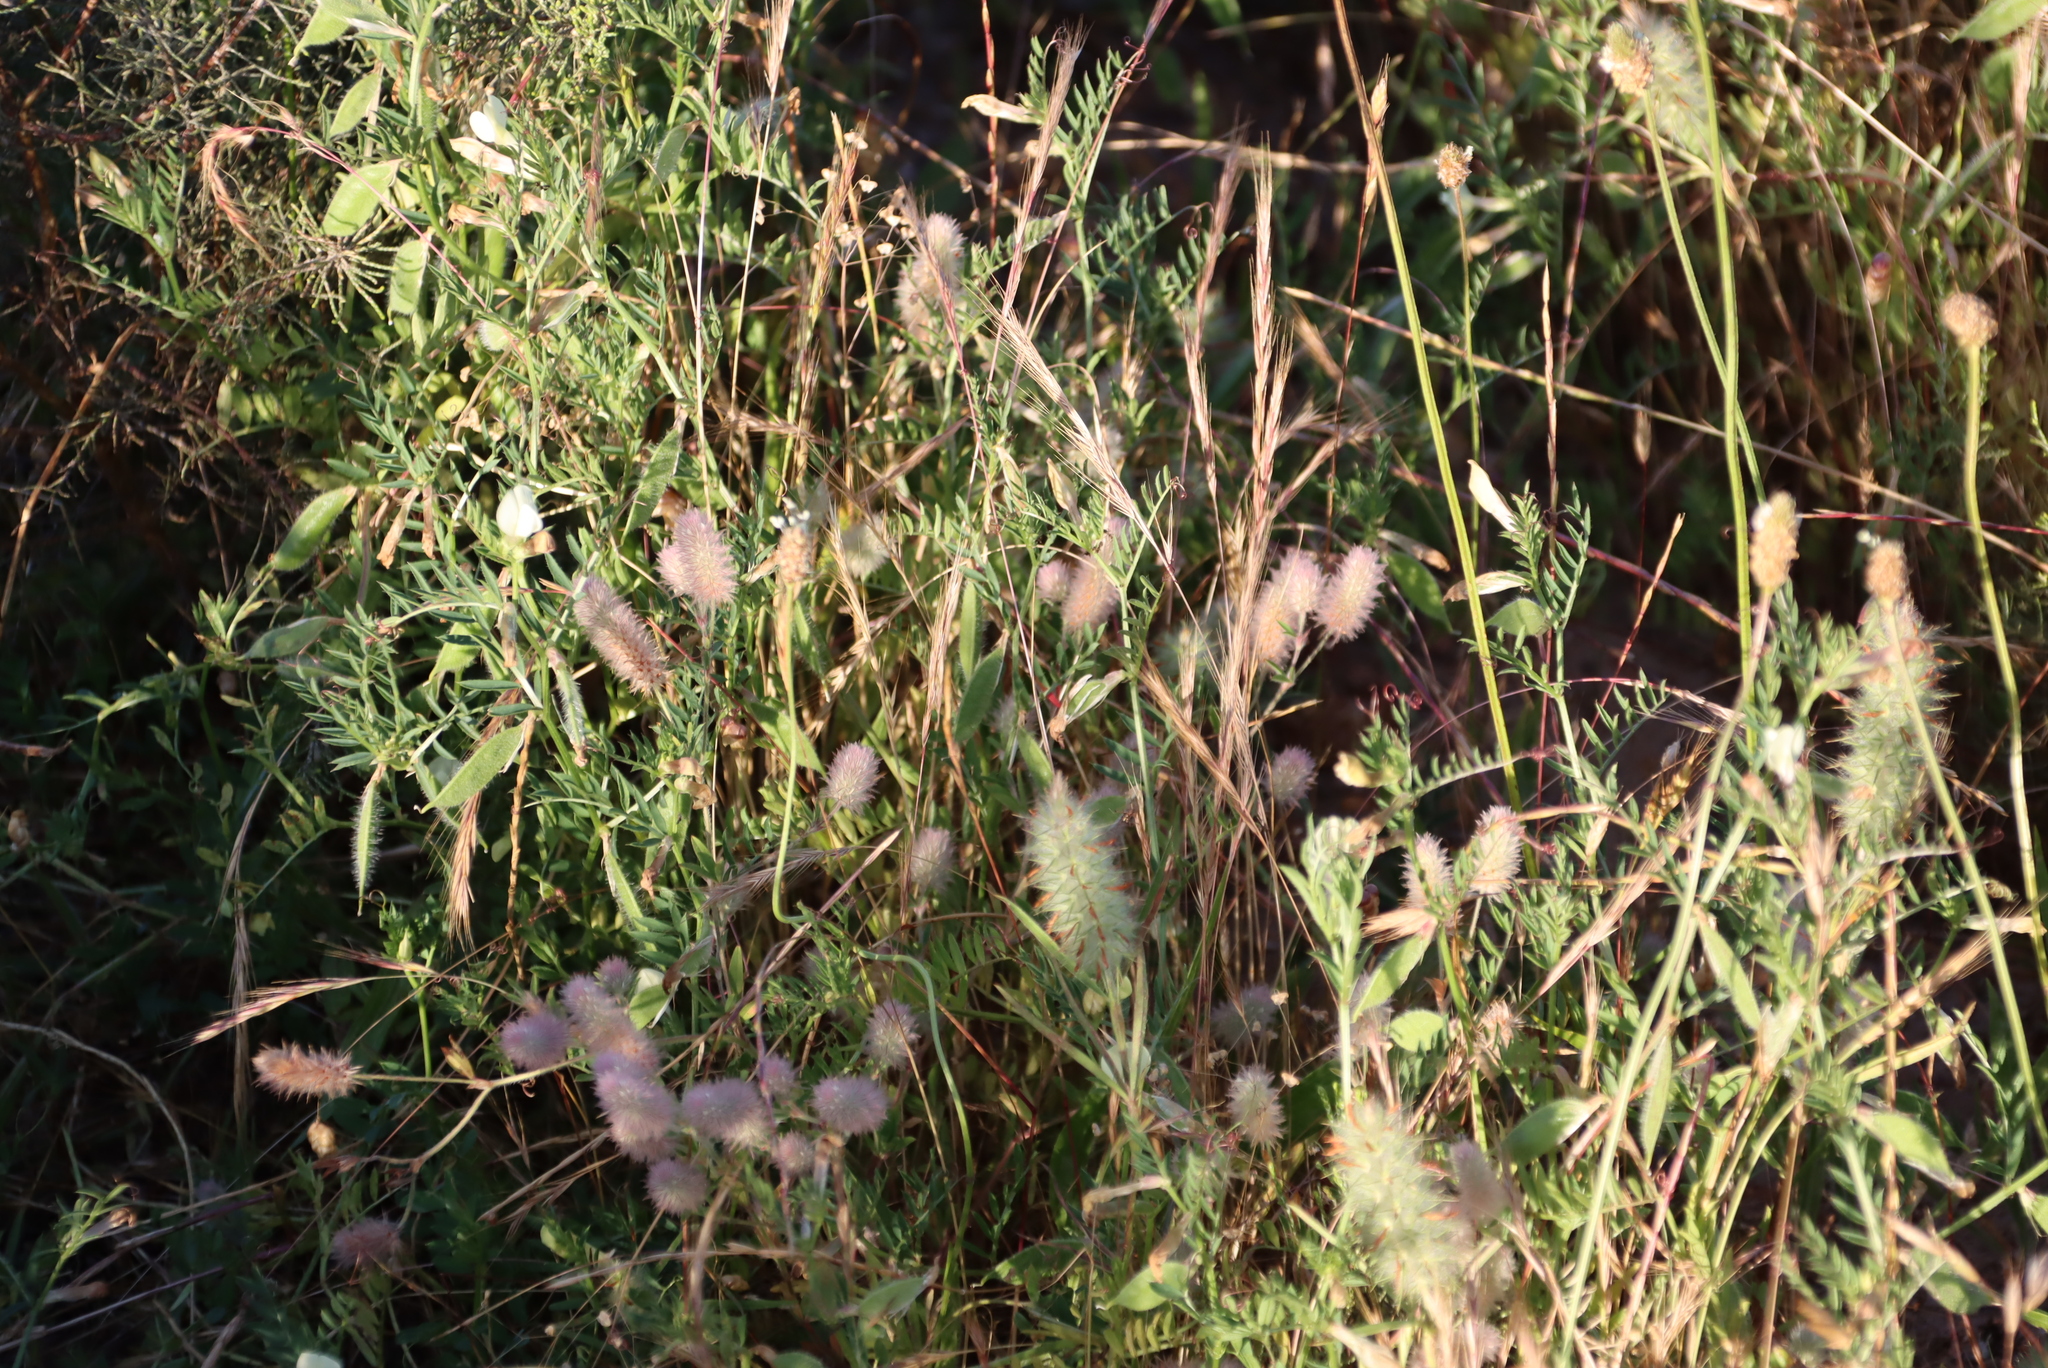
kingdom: Plantae
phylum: Tracheophyta
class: Magnoliopsida
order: Fabales
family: Fabaceae
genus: Trifolium
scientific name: Trifolium arvense
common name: Hare's-foot clover
